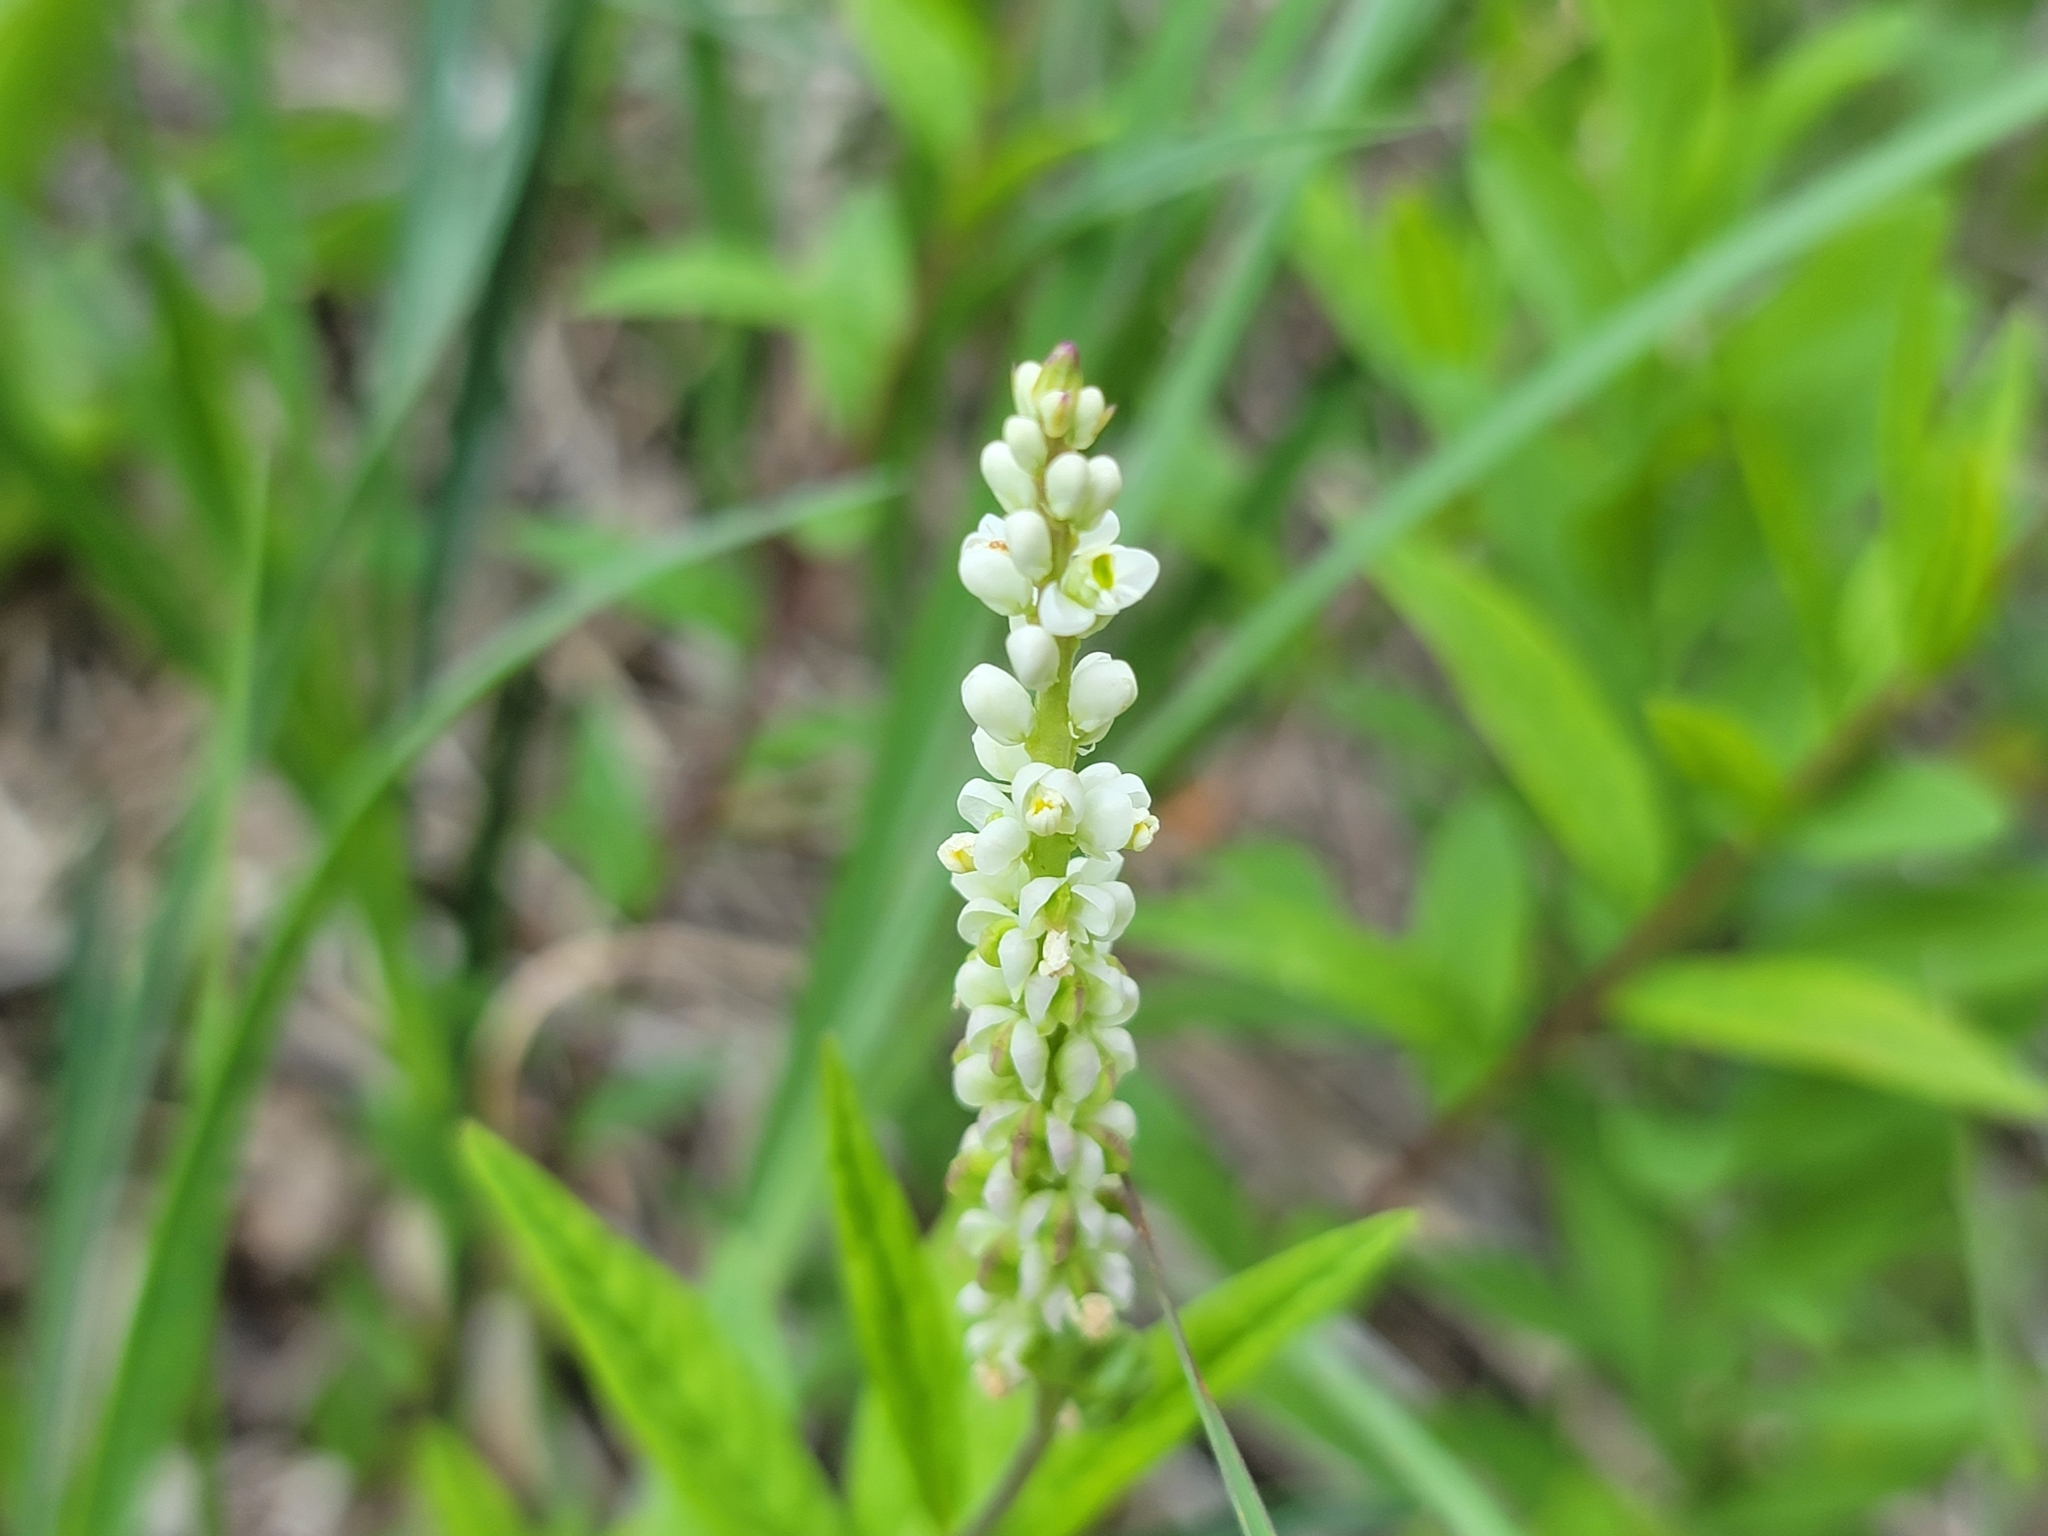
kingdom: Plantae
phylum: Tracheophyta
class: Magnoliopsida
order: Fabales
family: Polygalaceae
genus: Polygala
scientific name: Polygala senega
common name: Seneca snakeroot
